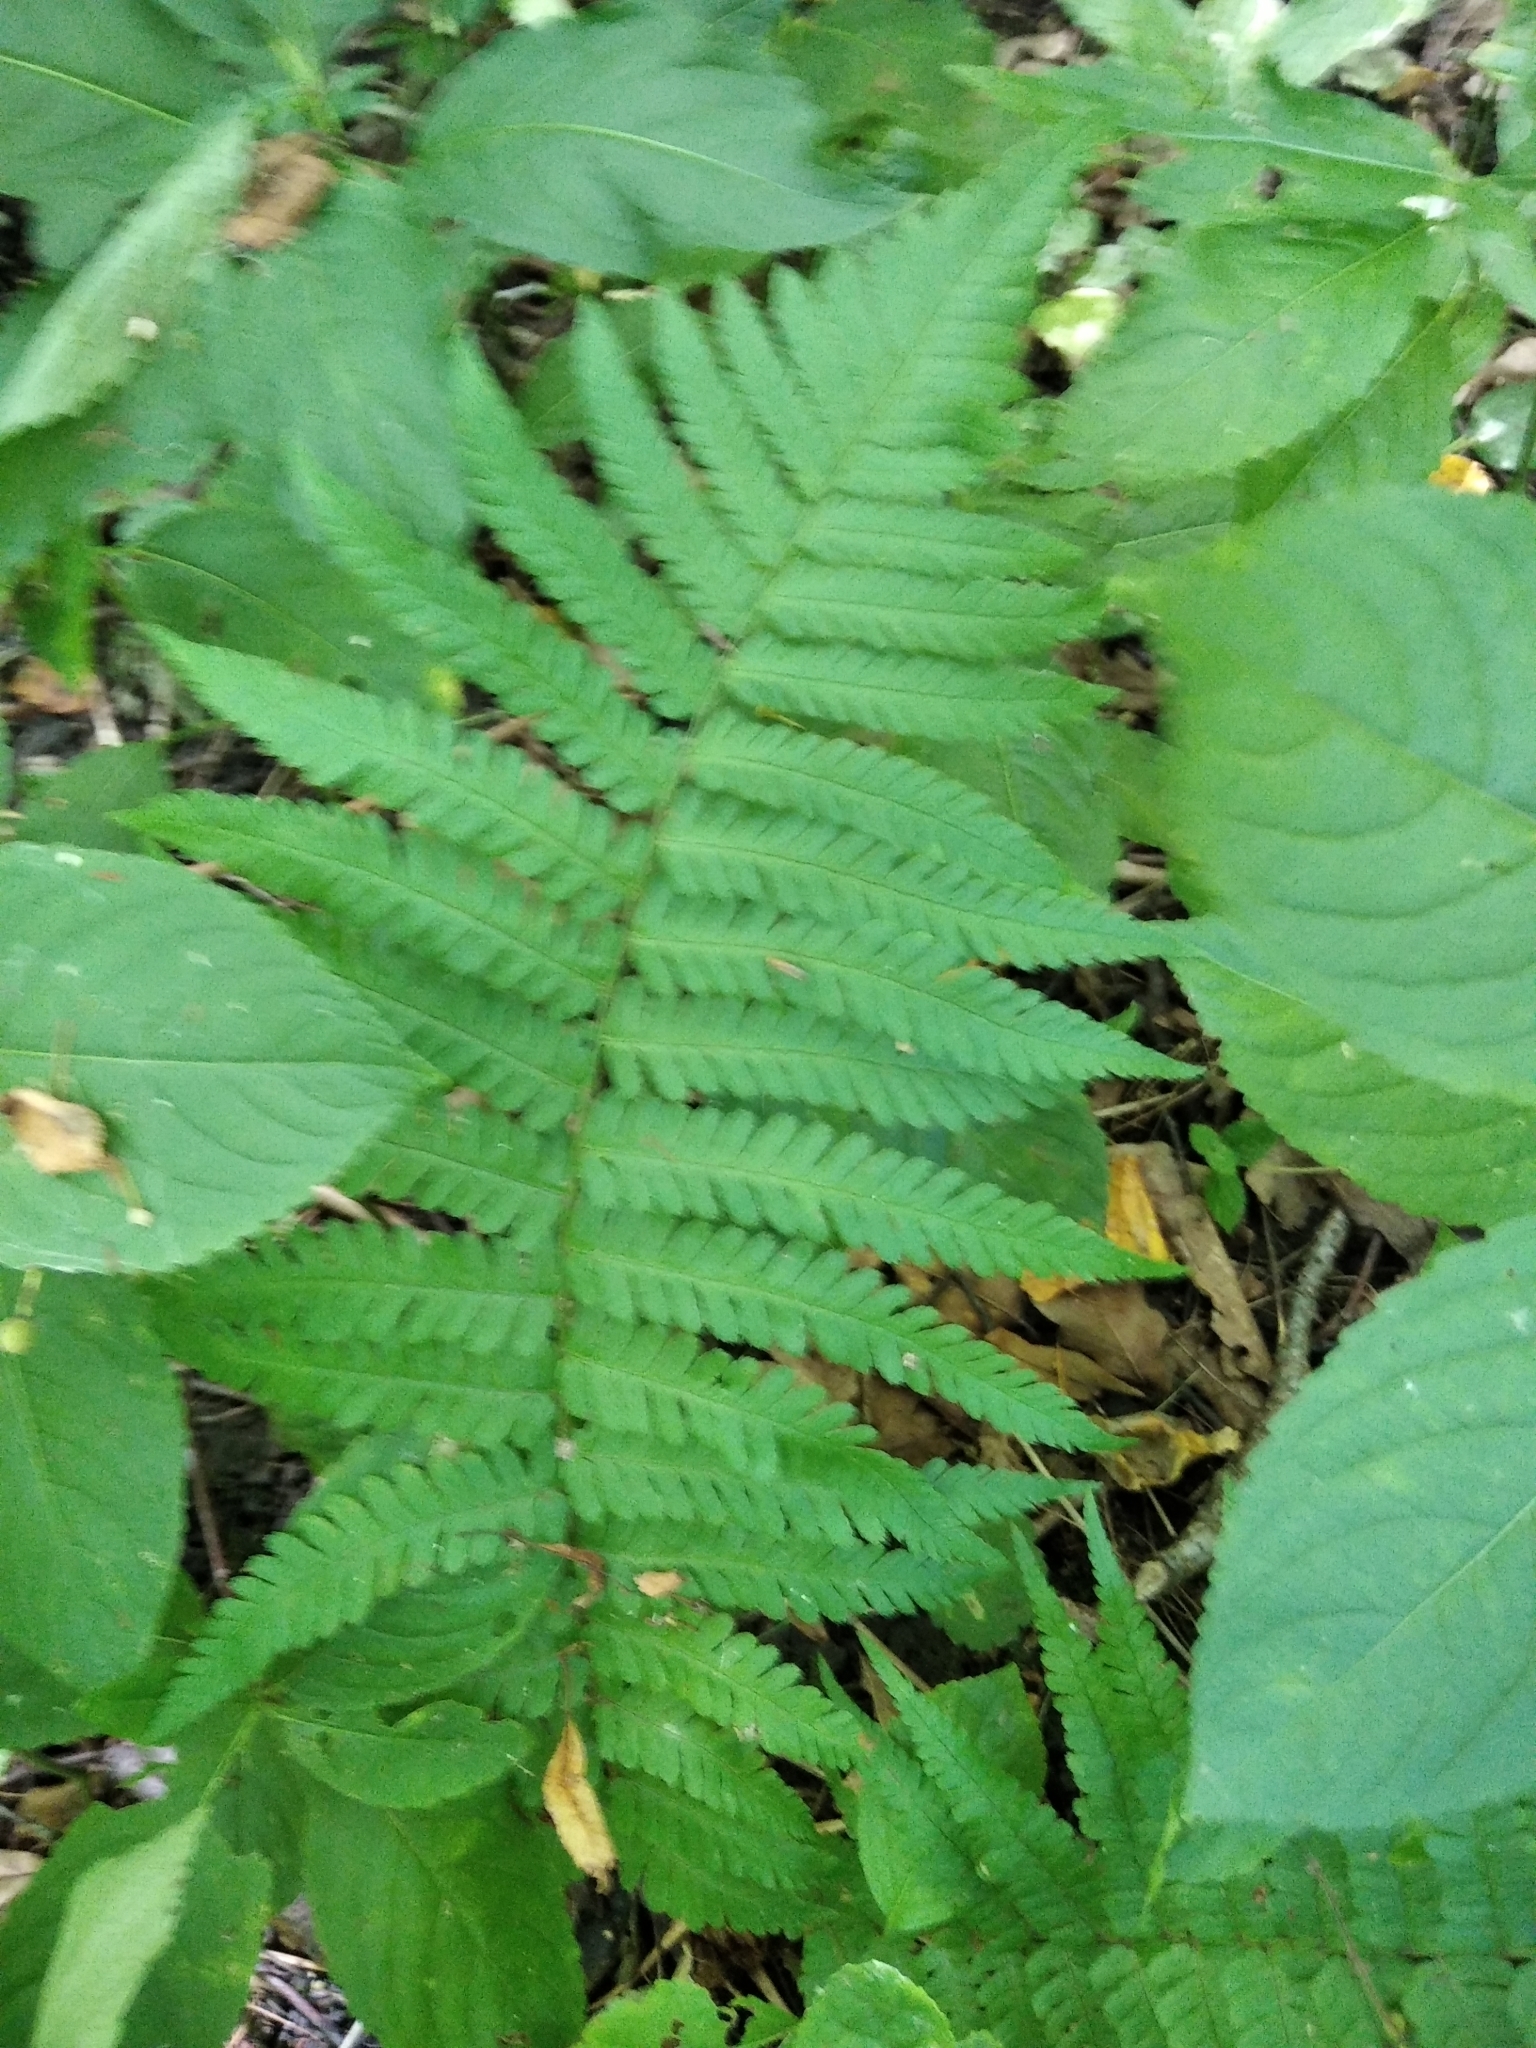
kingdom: Plantae
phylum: Tracheophyta
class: Polypodiopsida
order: Polypodiales
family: Dryopteridaceae
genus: Dryopteris
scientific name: Dryopteris filix-mas
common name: Male fern
